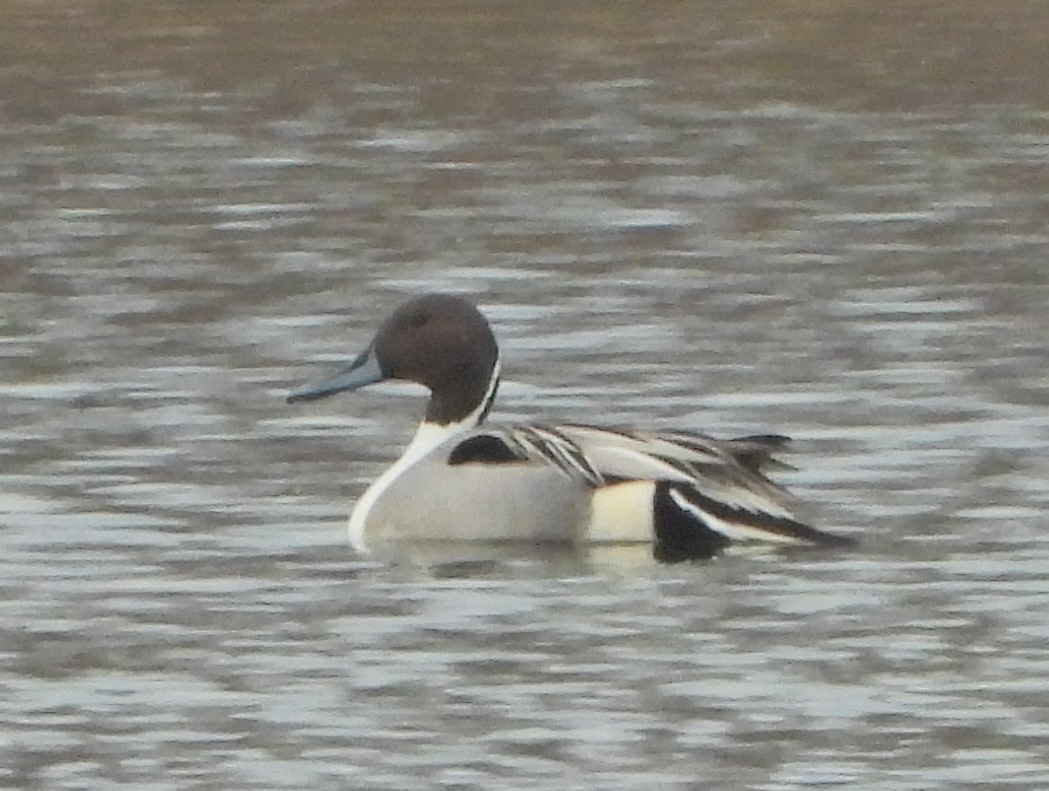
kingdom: Animalia
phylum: Chordata
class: Aves
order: Anseriformes
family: Anatidae
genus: Anas
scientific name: Anas acuta
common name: Northern pintail
